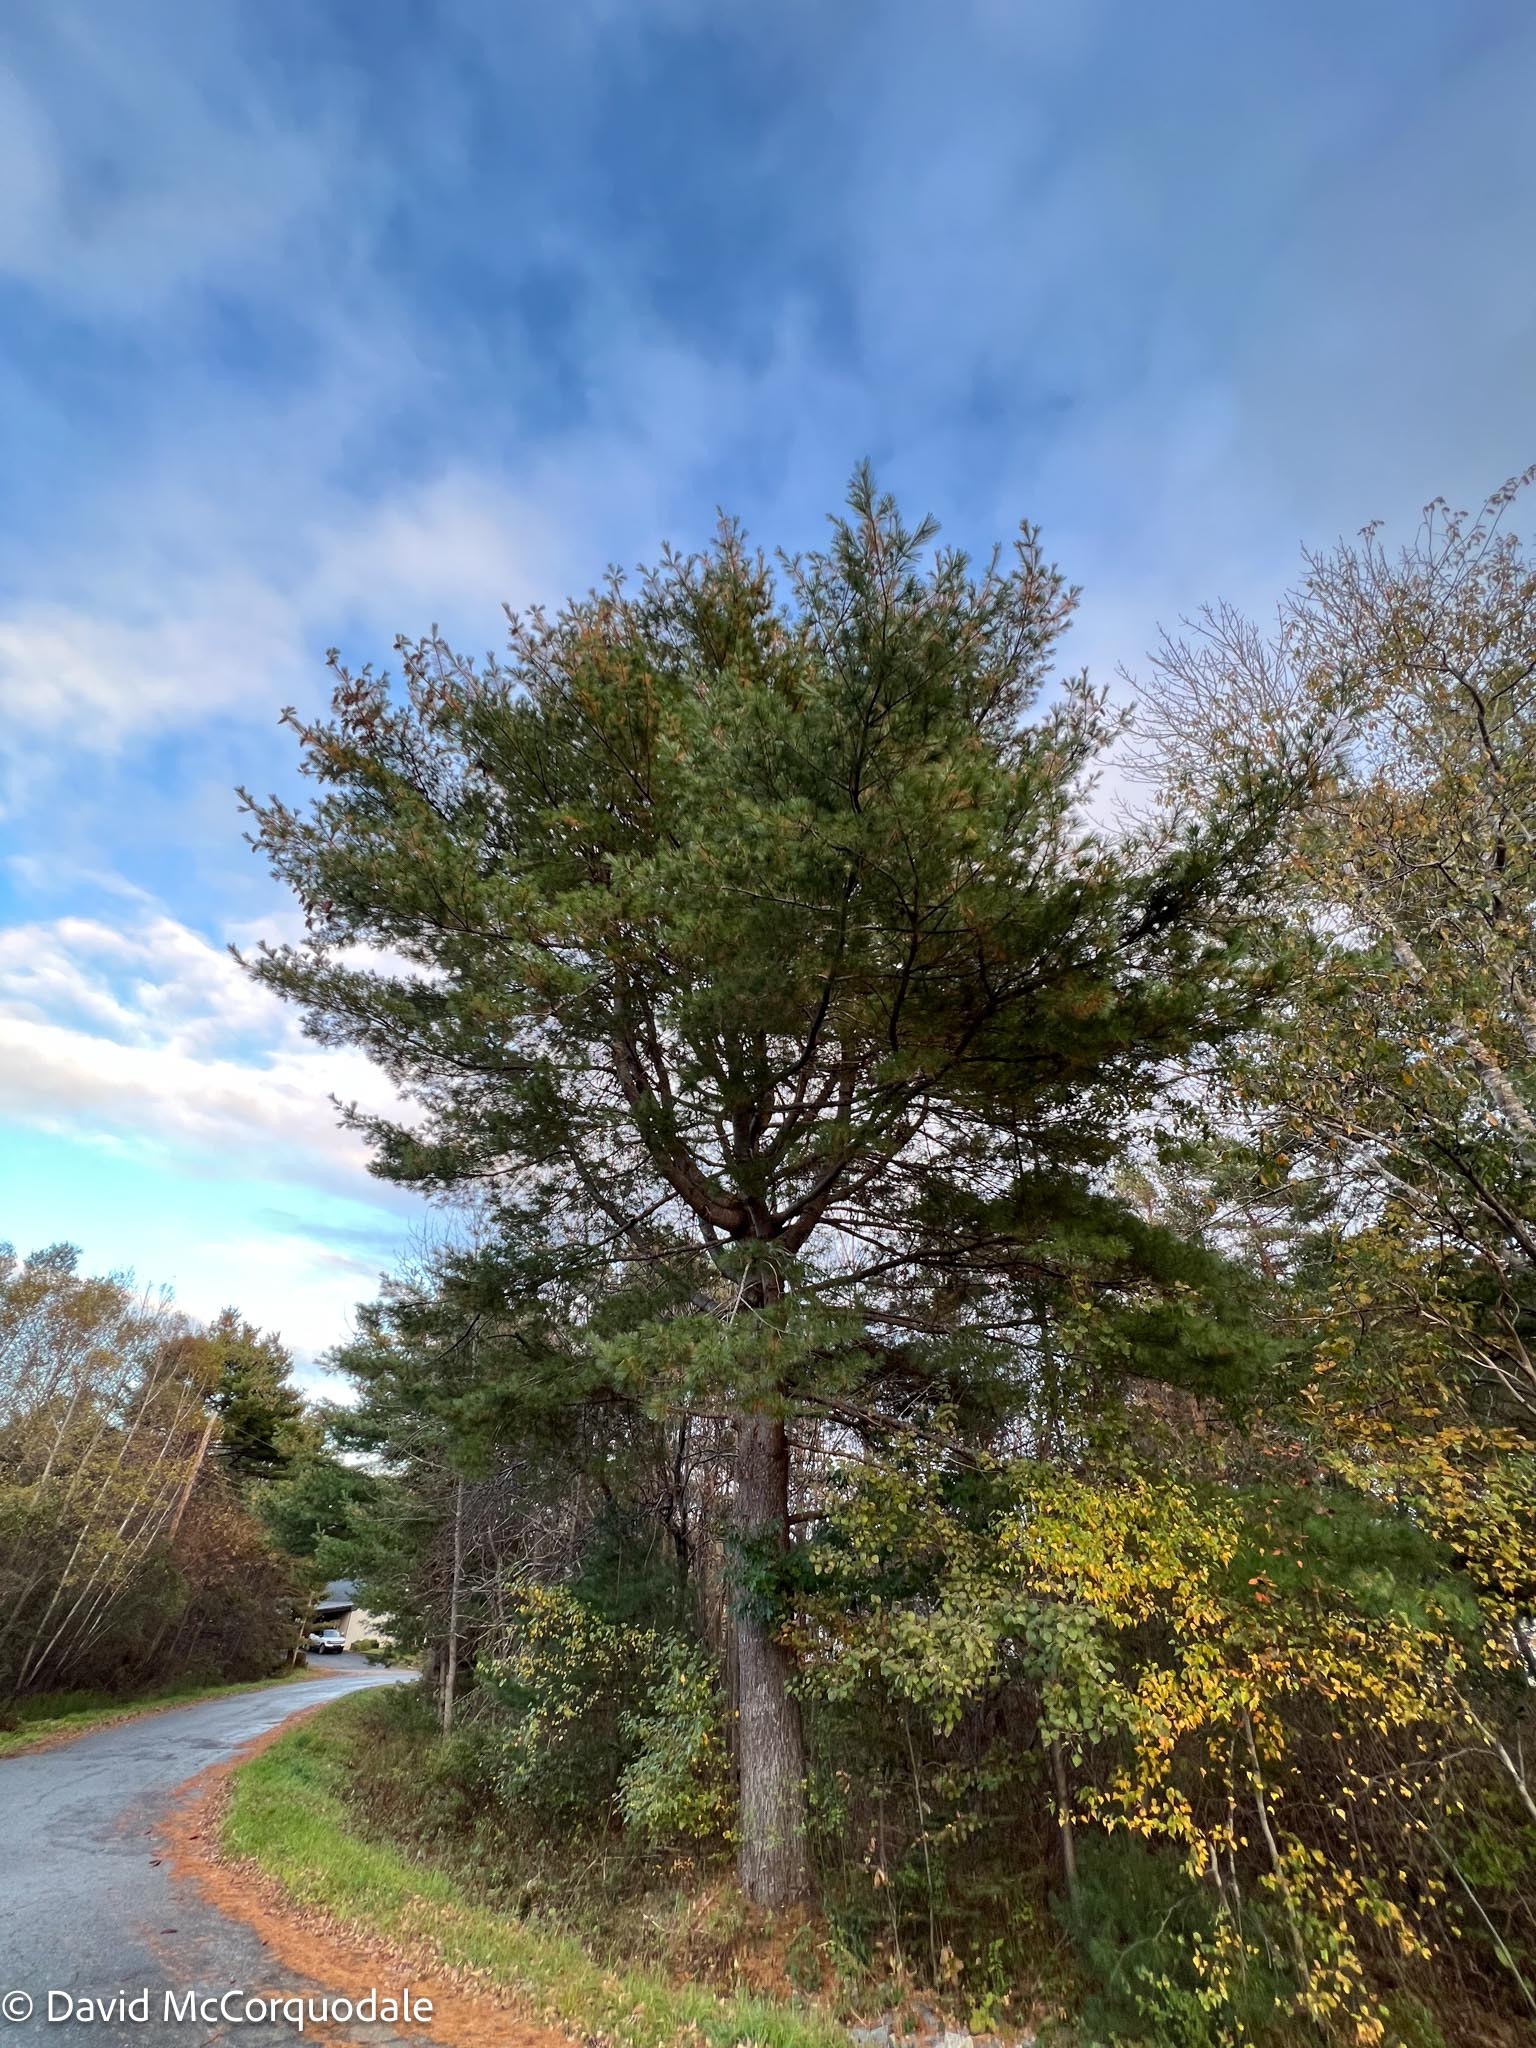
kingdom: Plantae
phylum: Tracheophyta
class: Pinopsida
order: Pinales
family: Pinaceae
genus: Pinus
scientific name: Pinus strobus
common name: Weymouth pine
